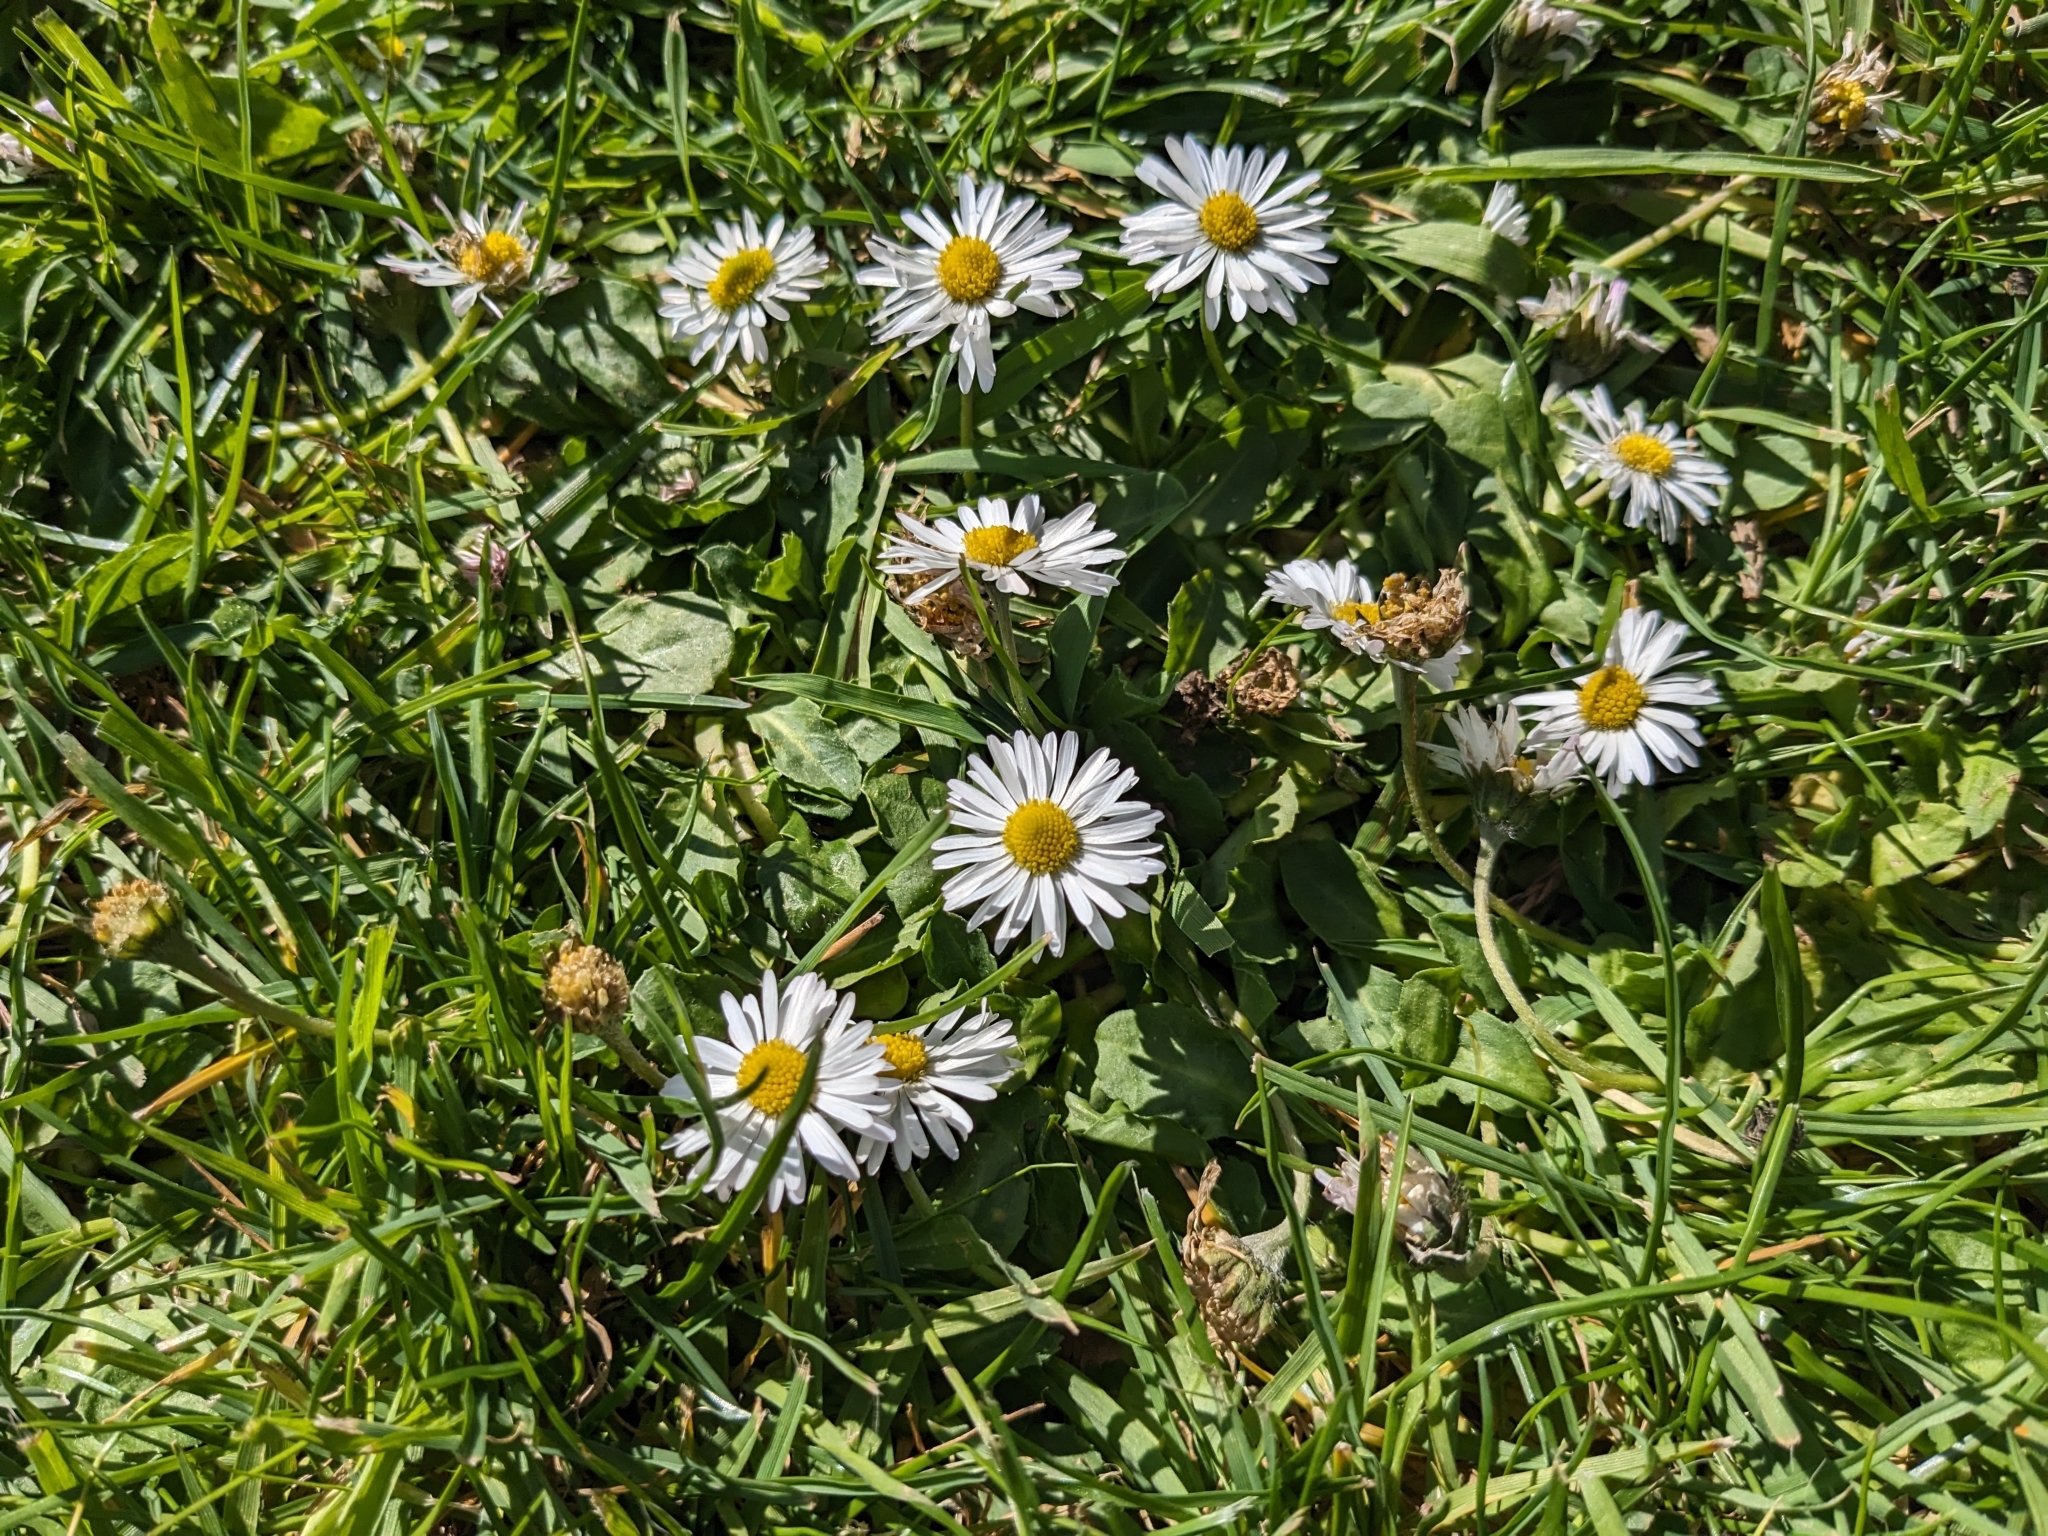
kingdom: Plantae
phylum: Tracheophyta
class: Magnoliopsida
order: Asterales
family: Asteraceae
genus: Bellis
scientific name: Bellis perennis
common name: Lawndaisy
